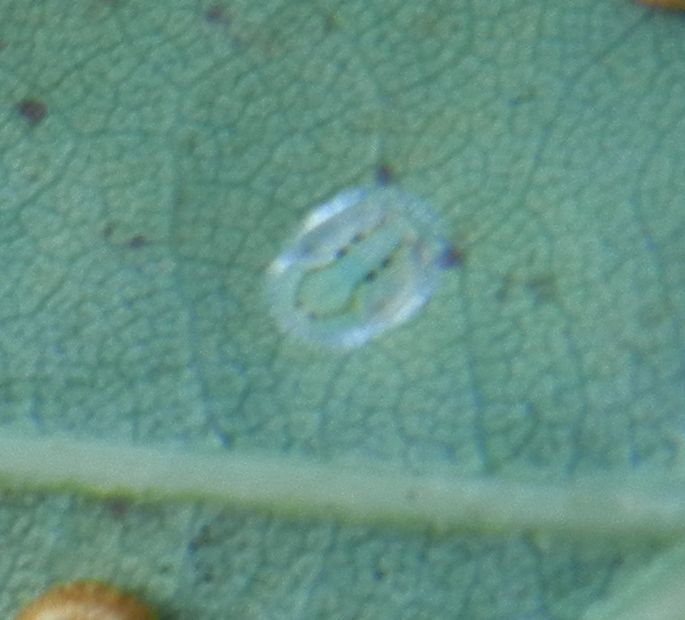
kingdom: Animalia
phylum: Arthropoda
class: Insecta
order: Hemiptera
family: Triozidae
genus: Trioza
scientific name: Trioza remota
